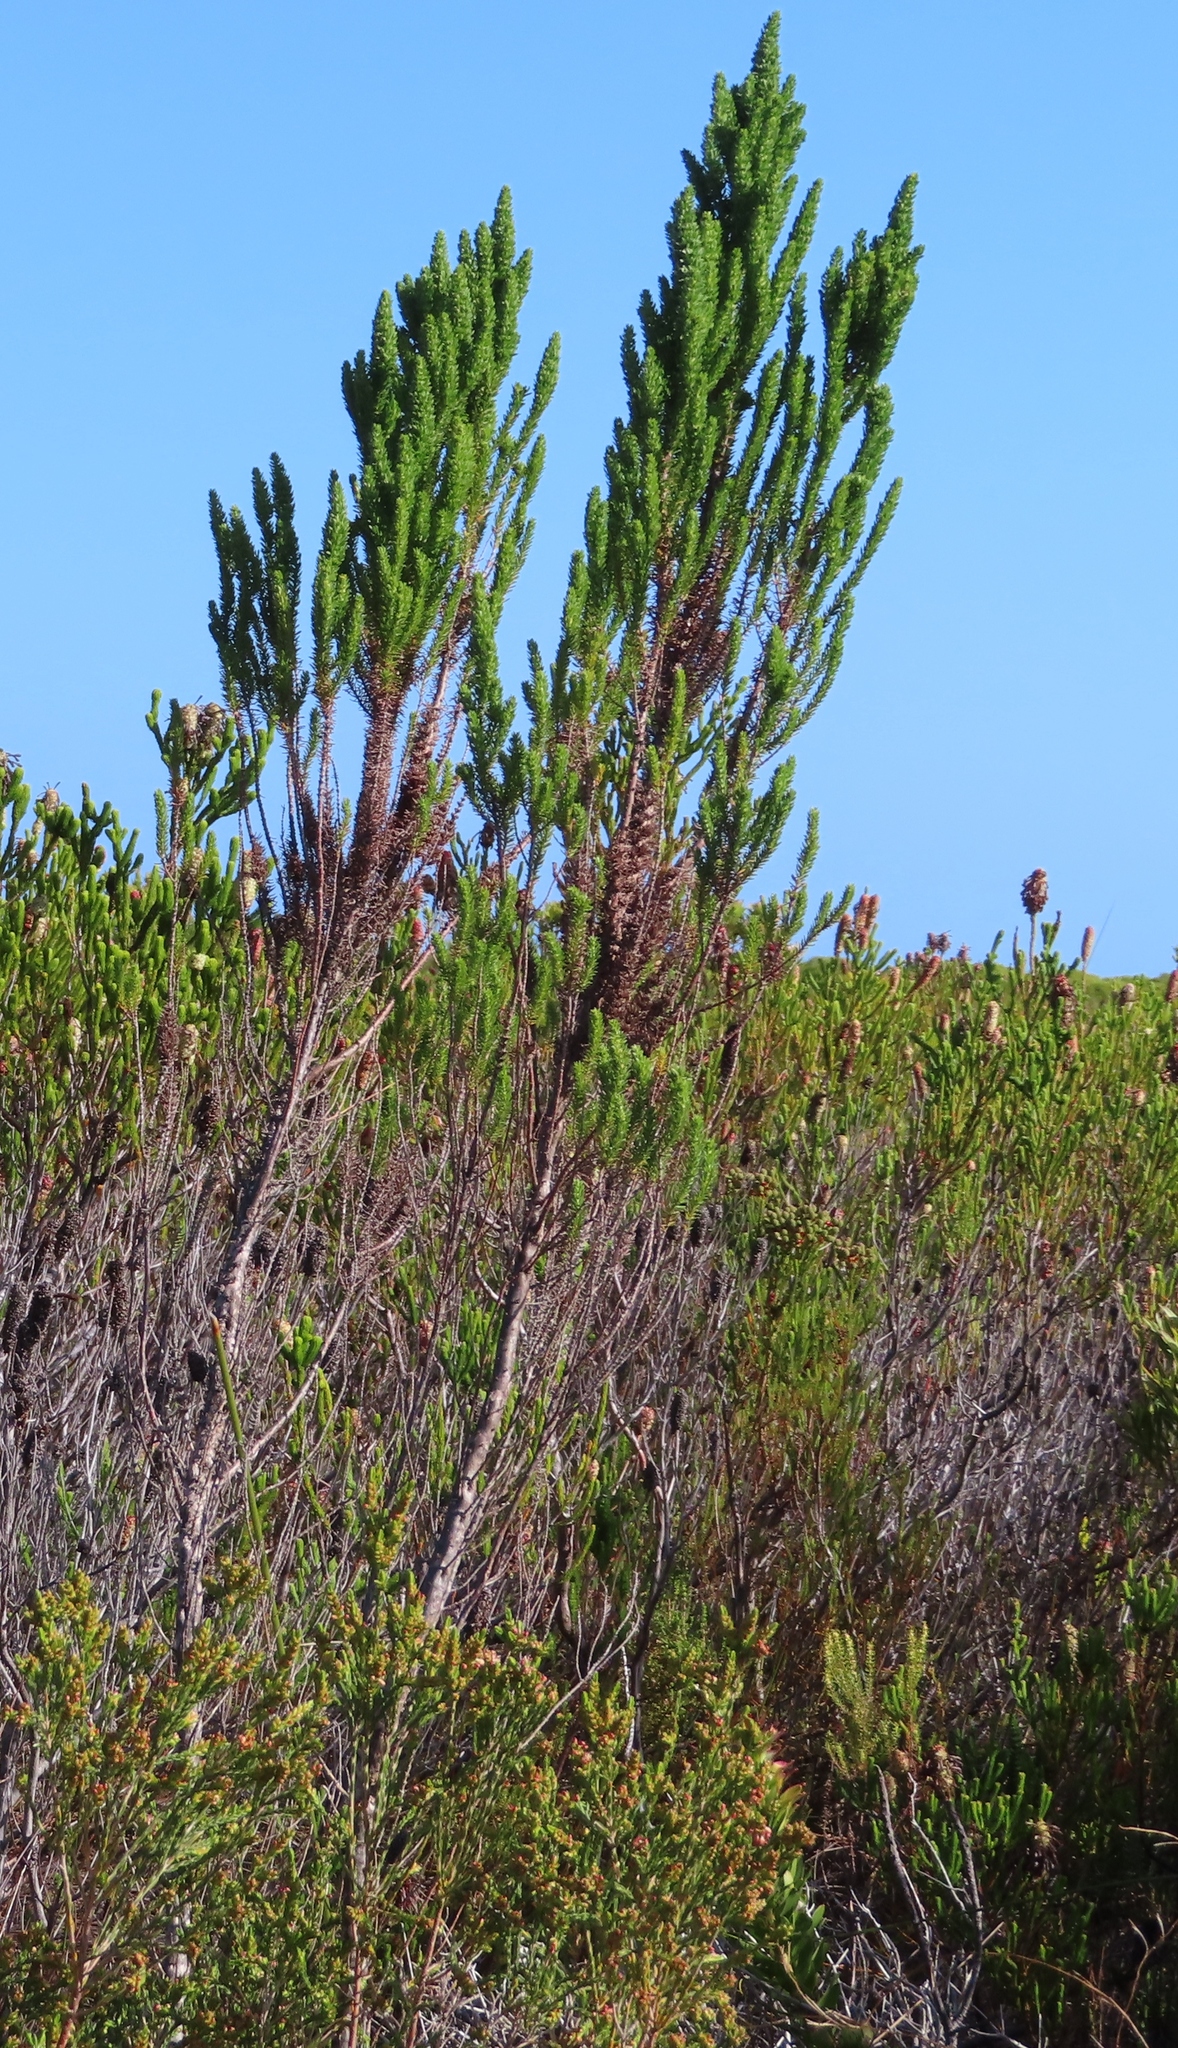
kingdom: Plantae
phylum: Tracheophyta
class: Magnoliopsida
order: Gentianales
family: Rubiaceae
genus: Anthospermum
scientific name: Anthospermum aethiopicum
